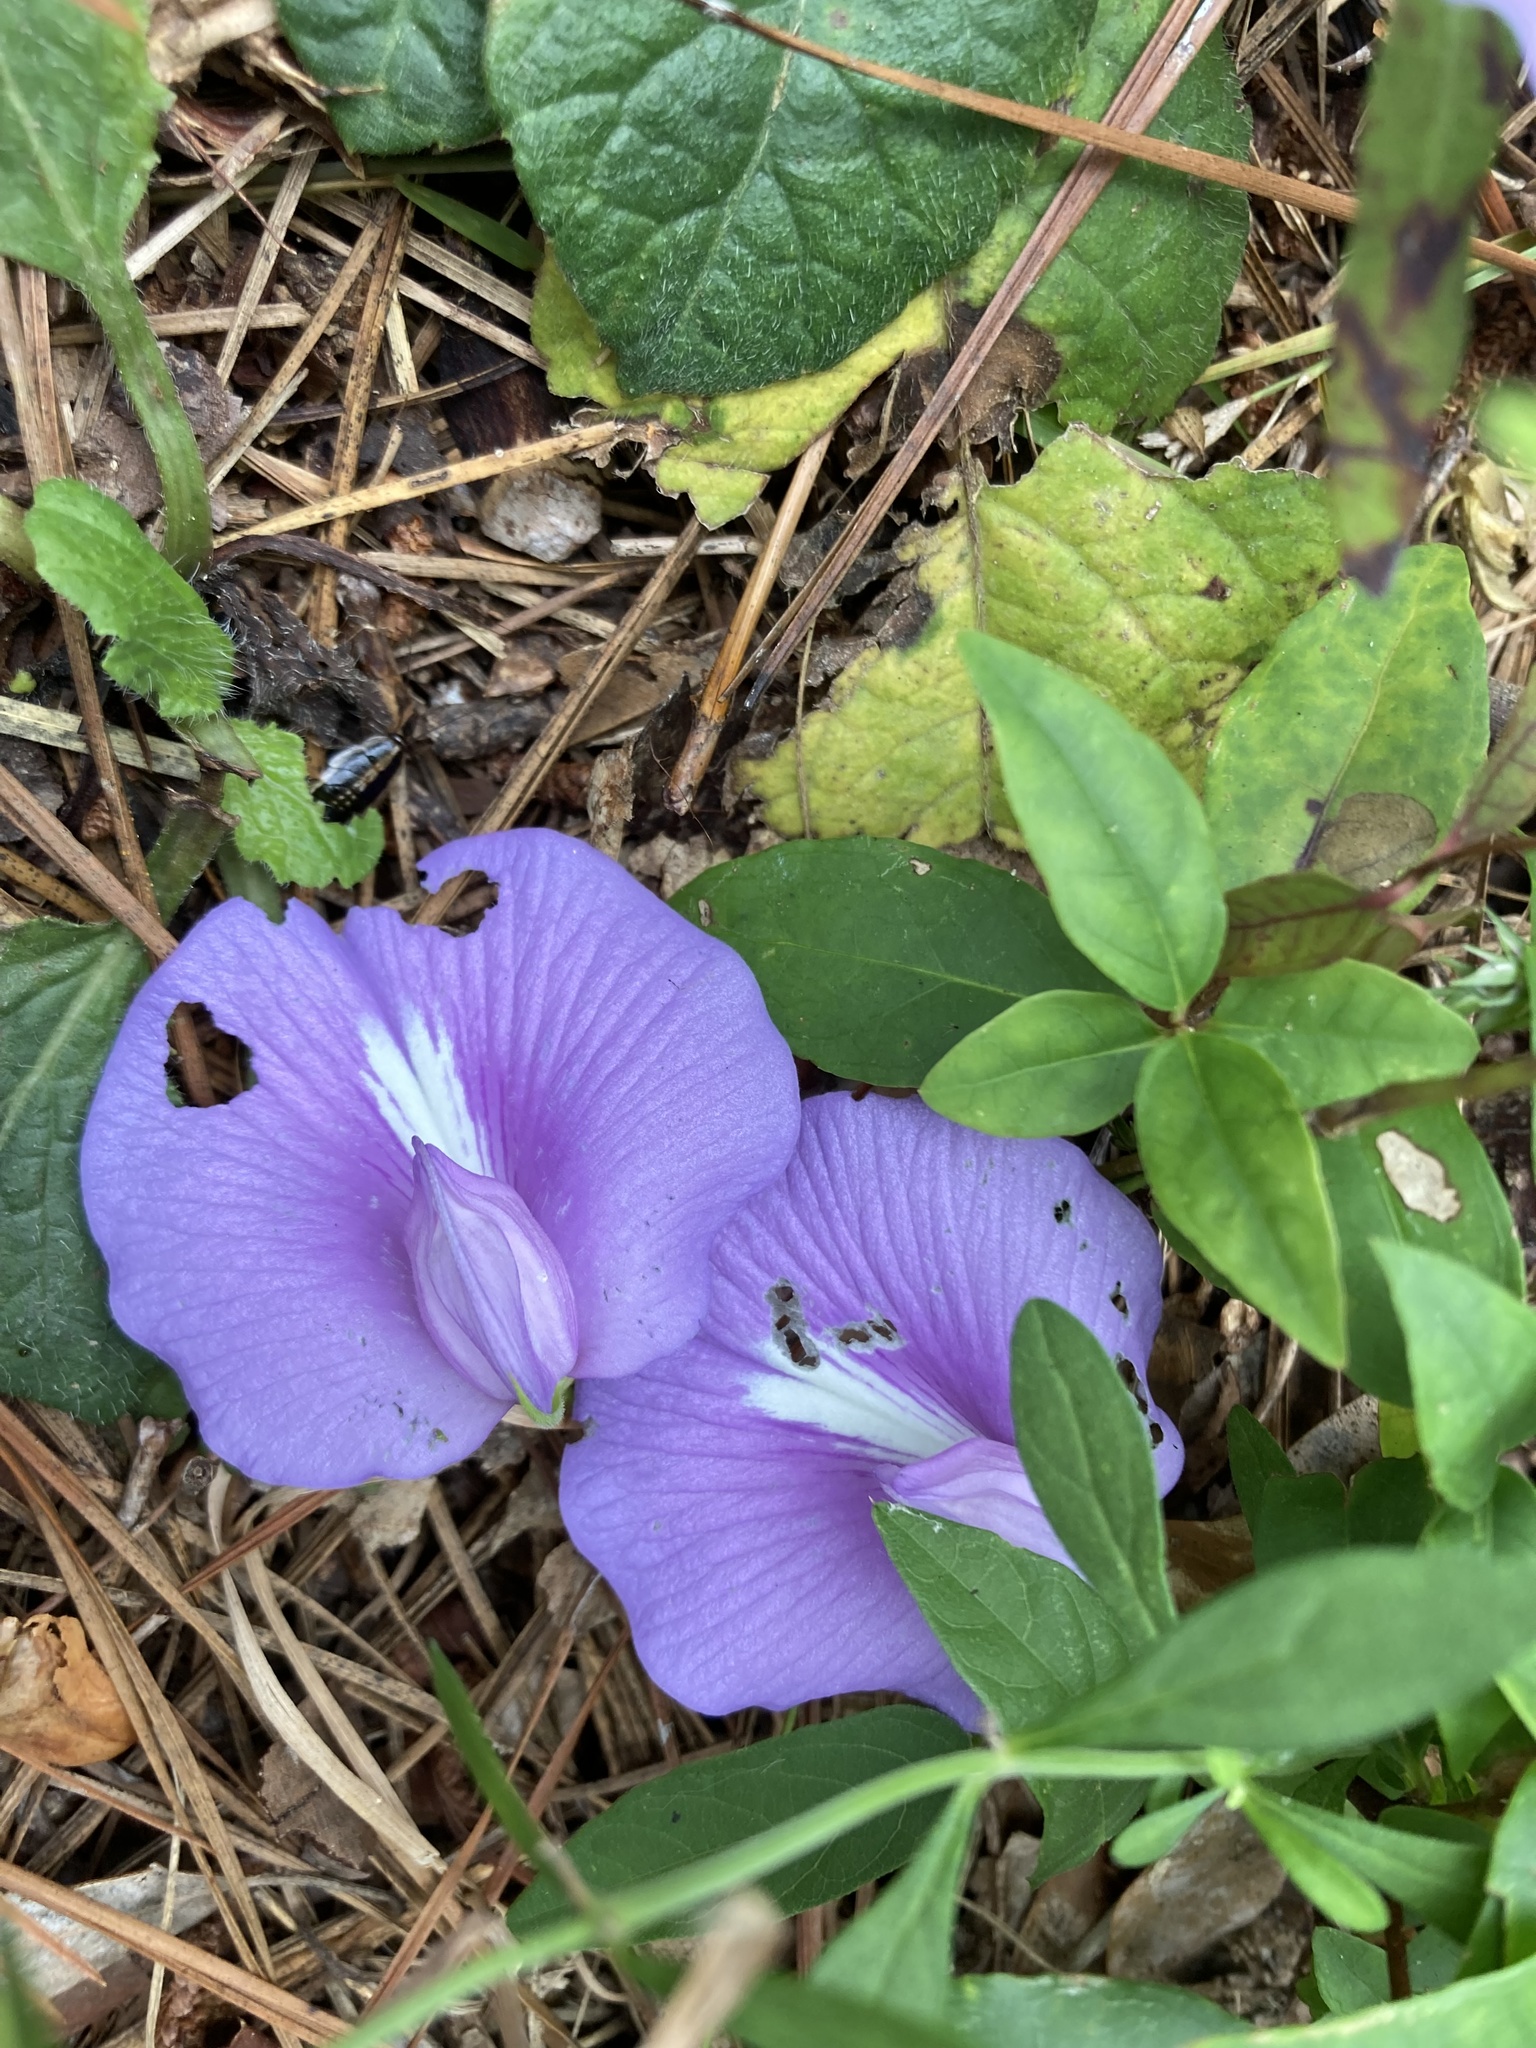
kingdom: Plantae
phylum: Tracheophyta
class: Magnoliopsida
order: Fabales
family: Fabaceae
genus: Centrosema
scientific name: Centrosema virginianum
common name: Butterfly-pea
